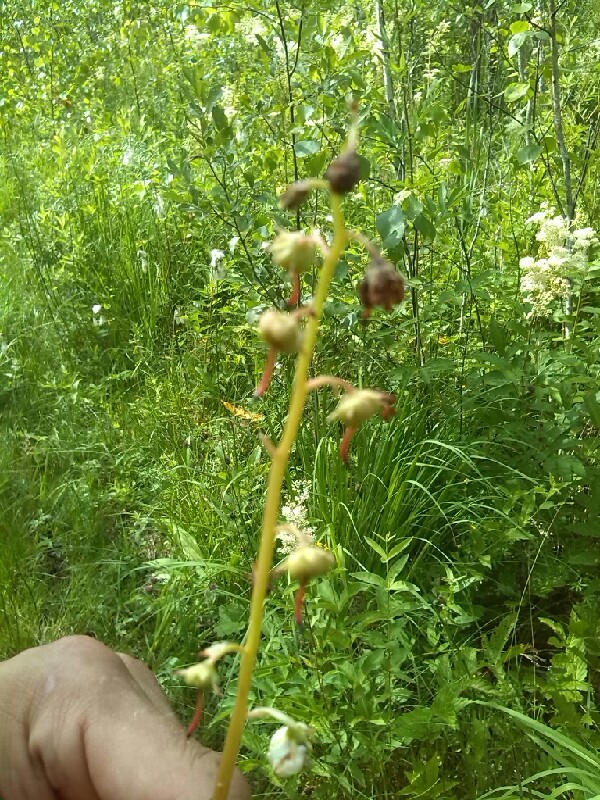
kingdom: Plantae
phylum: Tracheophyta
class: Magnoliopsida
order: Ericales
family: Ericaceae
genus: Pyrola
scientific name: Pyrola rotundifolia
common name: Round-leaved wintergreen
